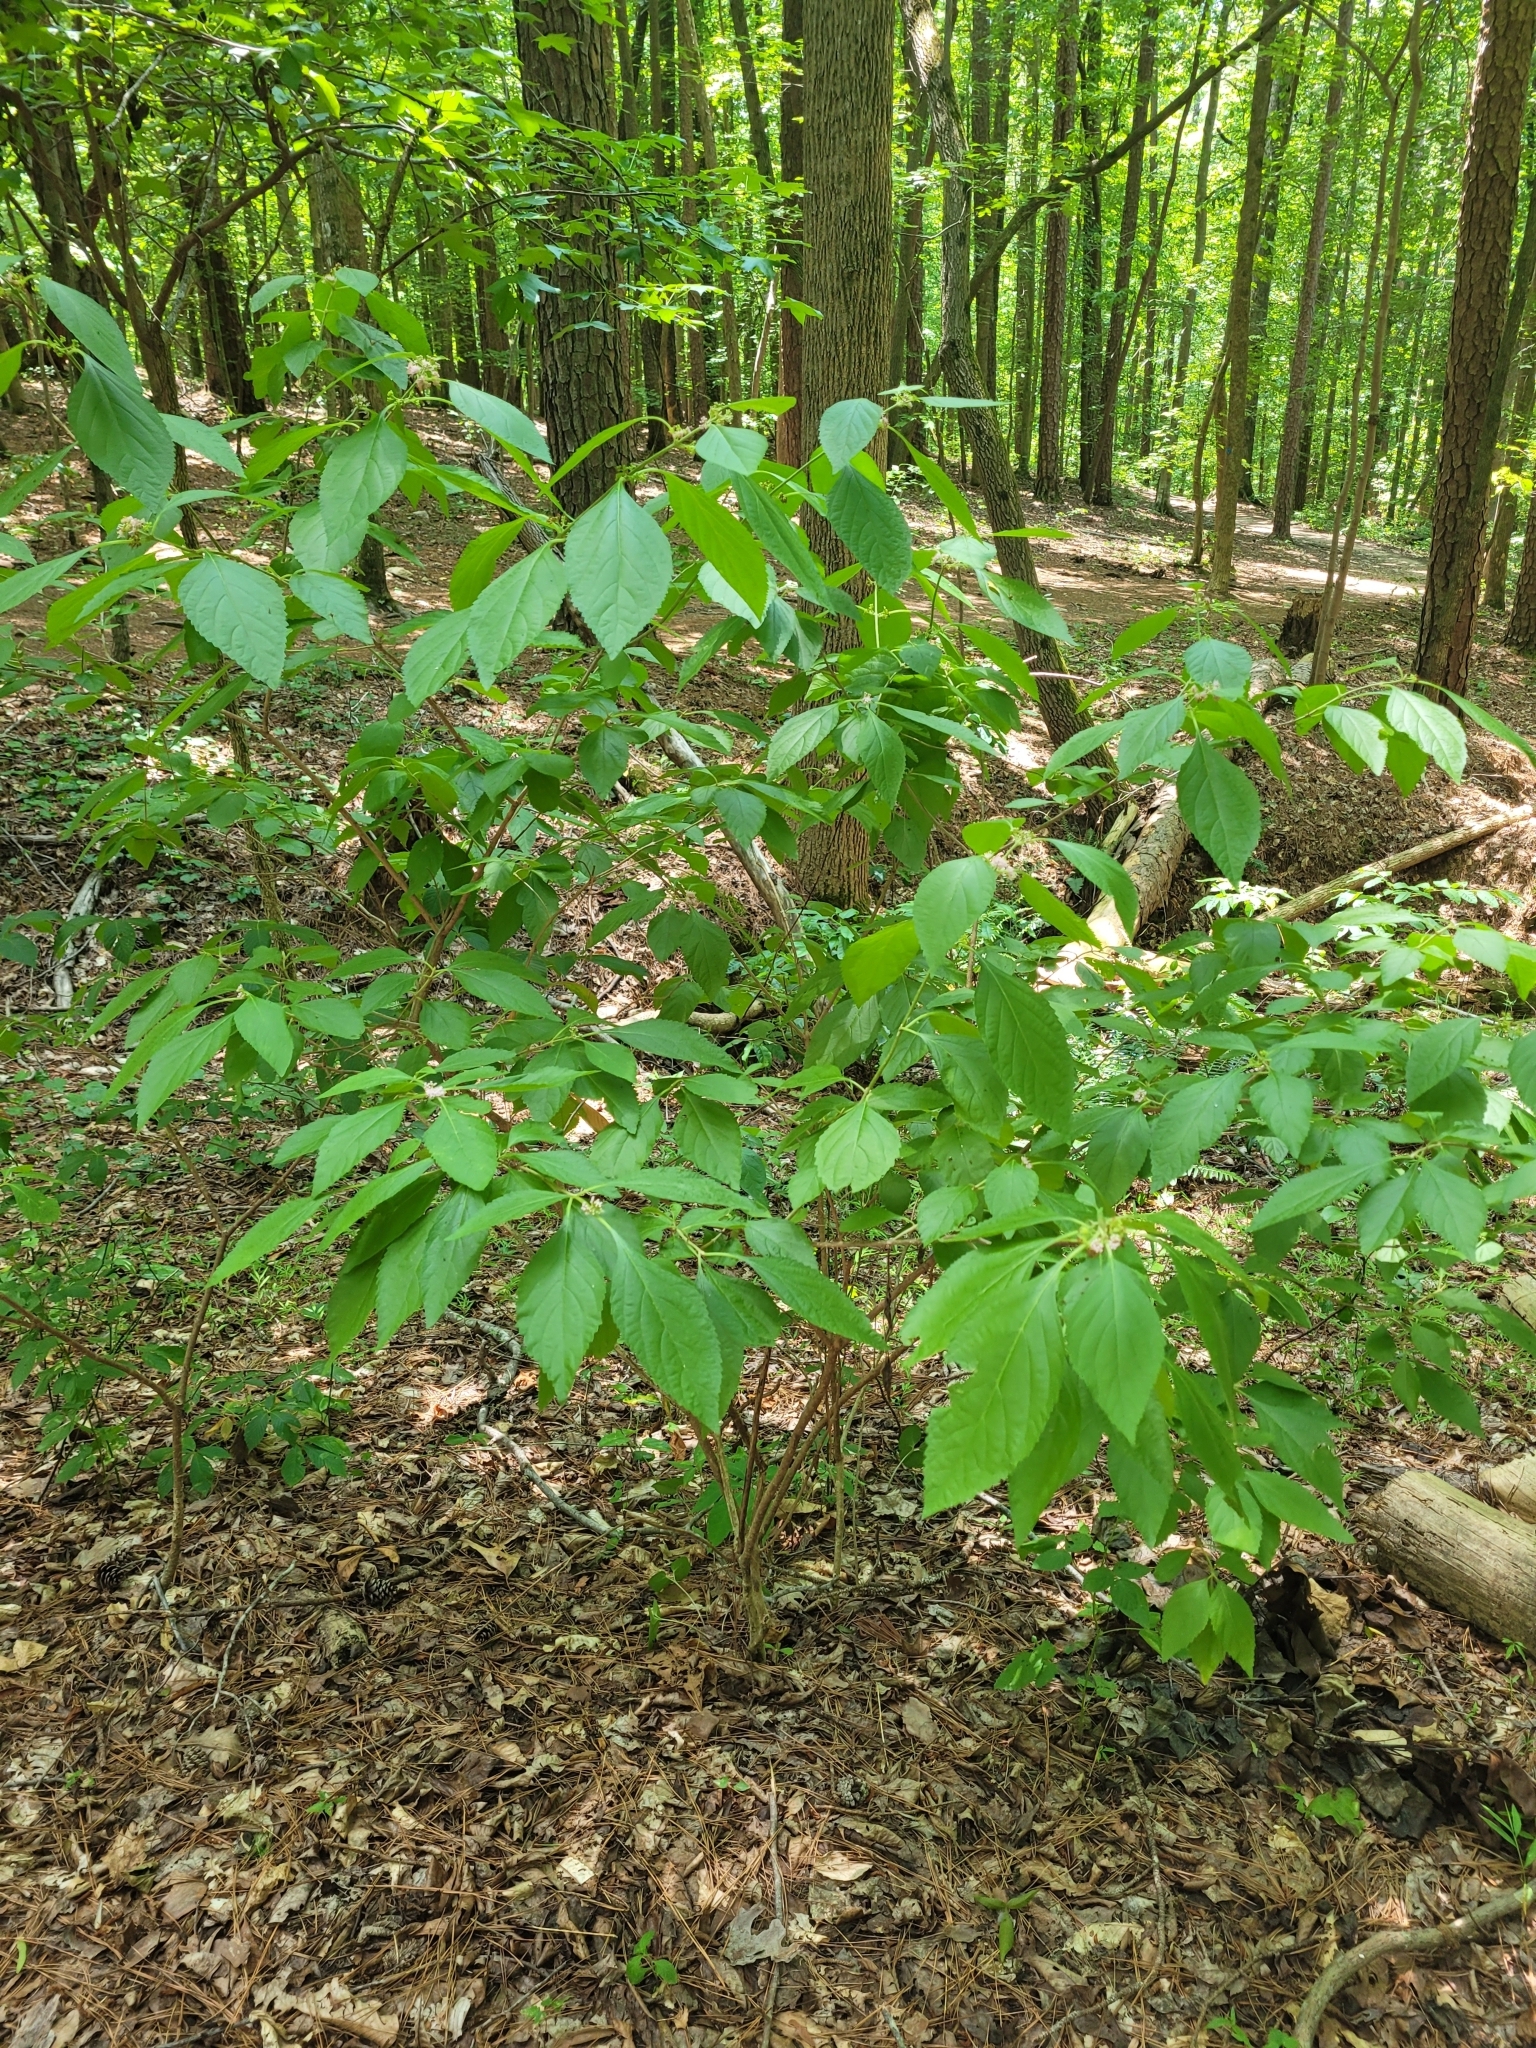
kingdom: Plantae
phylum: Tracheophyta
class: Magnoliopsida
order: Lamiales
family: Lamiaceae
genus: Callicarpa
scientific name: Callicarpa americana
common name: American beautyberry
